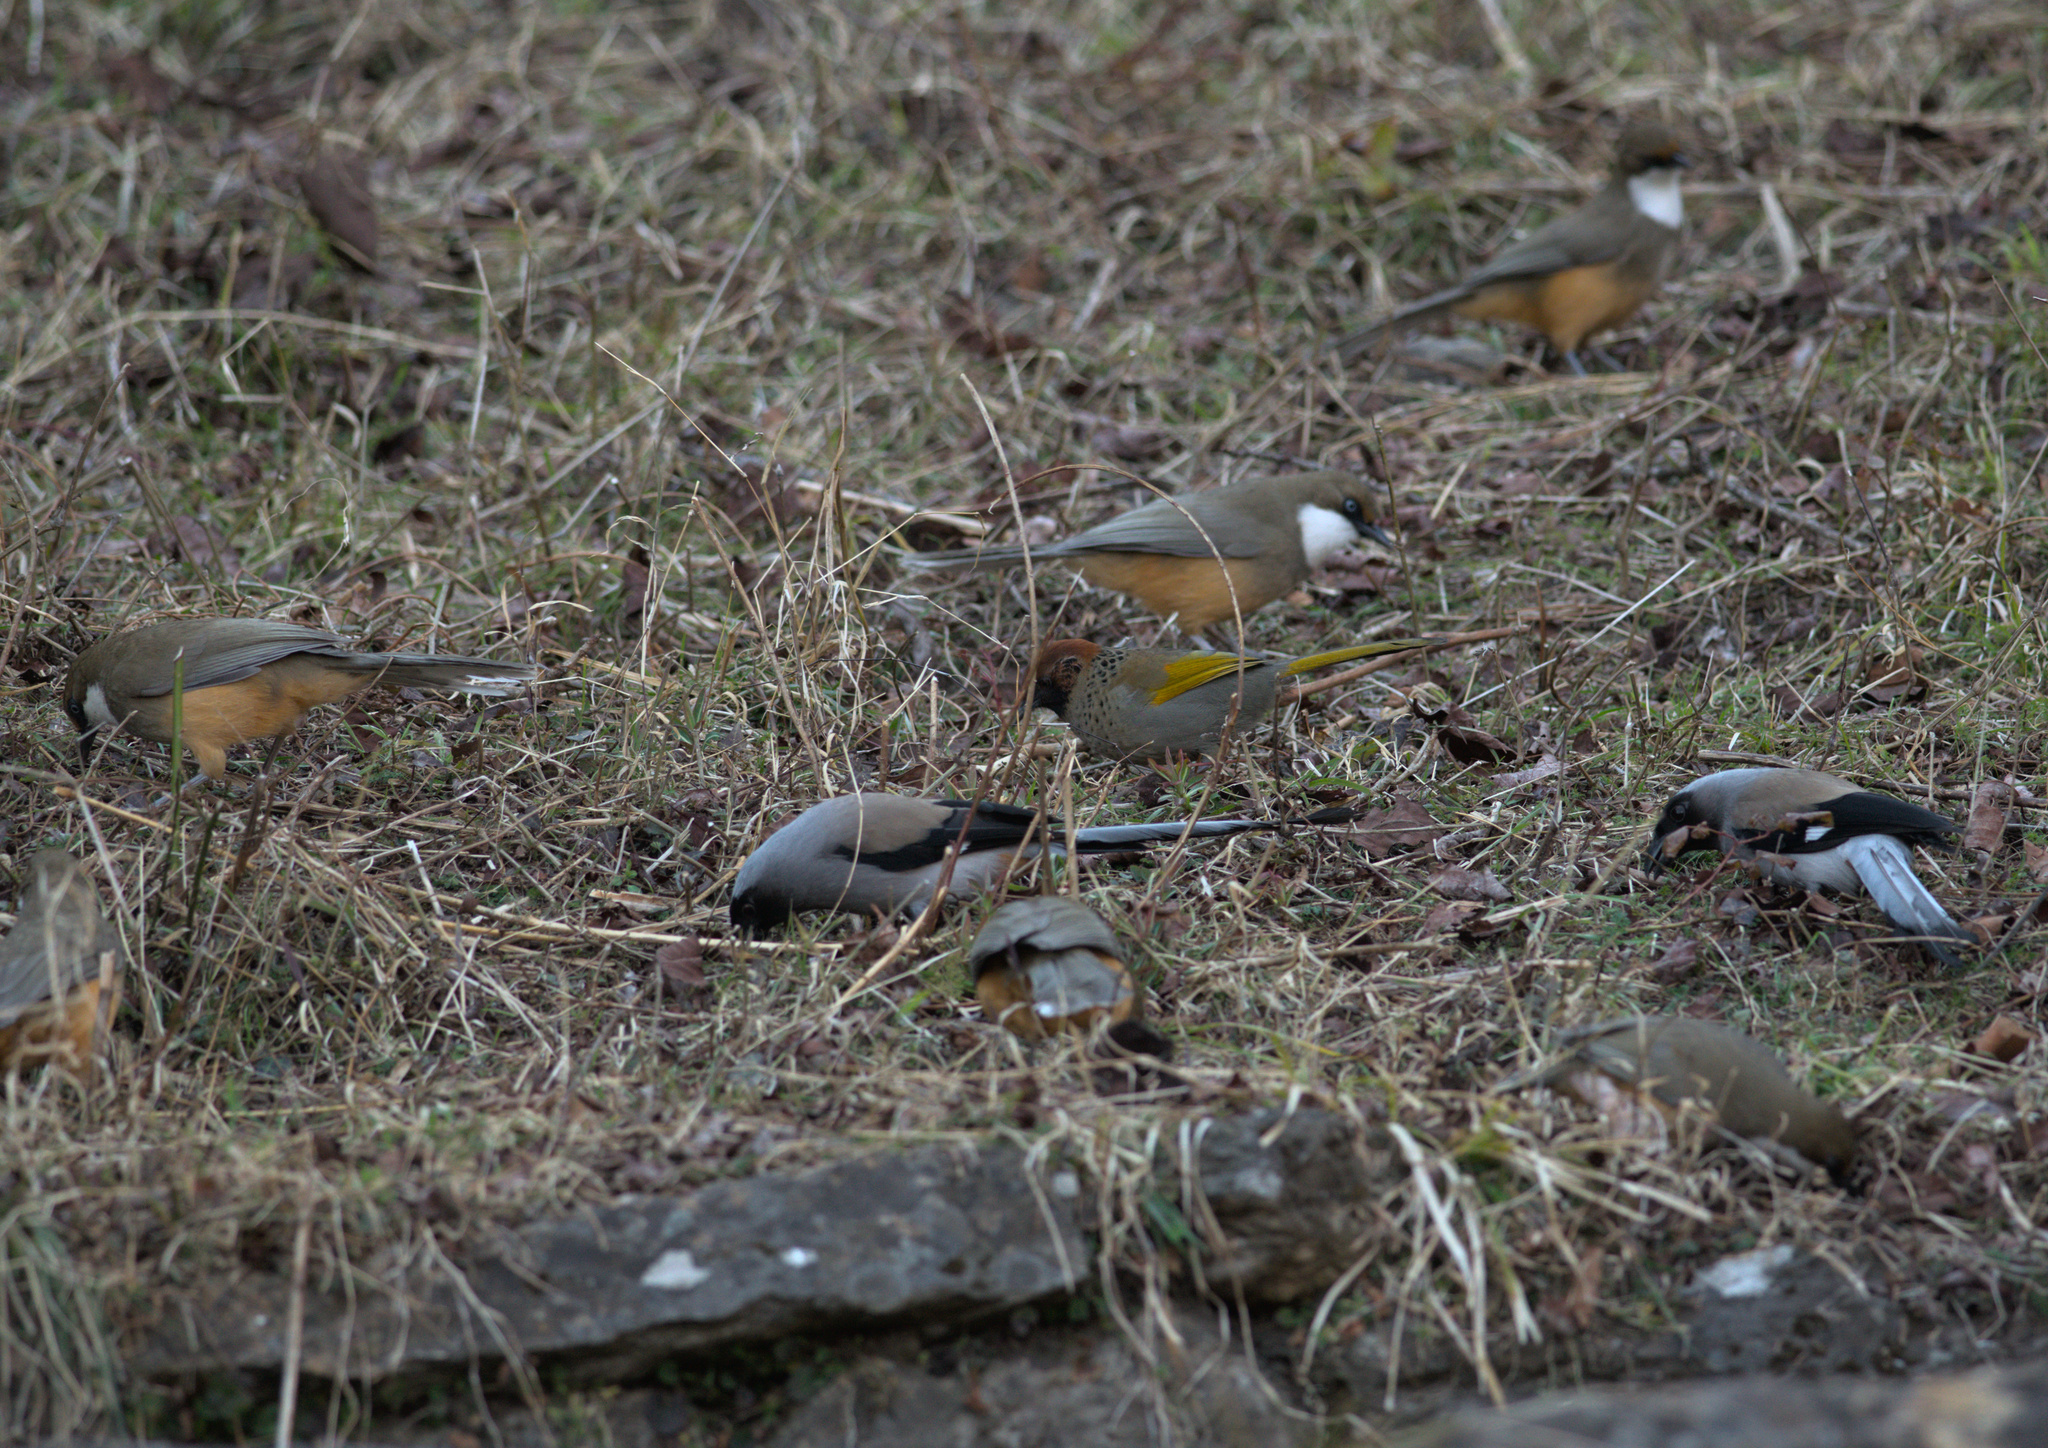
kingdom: Animalia
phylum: Chordata
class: Aves
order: Passeriformes
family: Leiothrichidae
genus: Trochalopteron
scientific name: Trochalopteron erythrocephalum
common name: Chestnut-crowned laughingthrush
